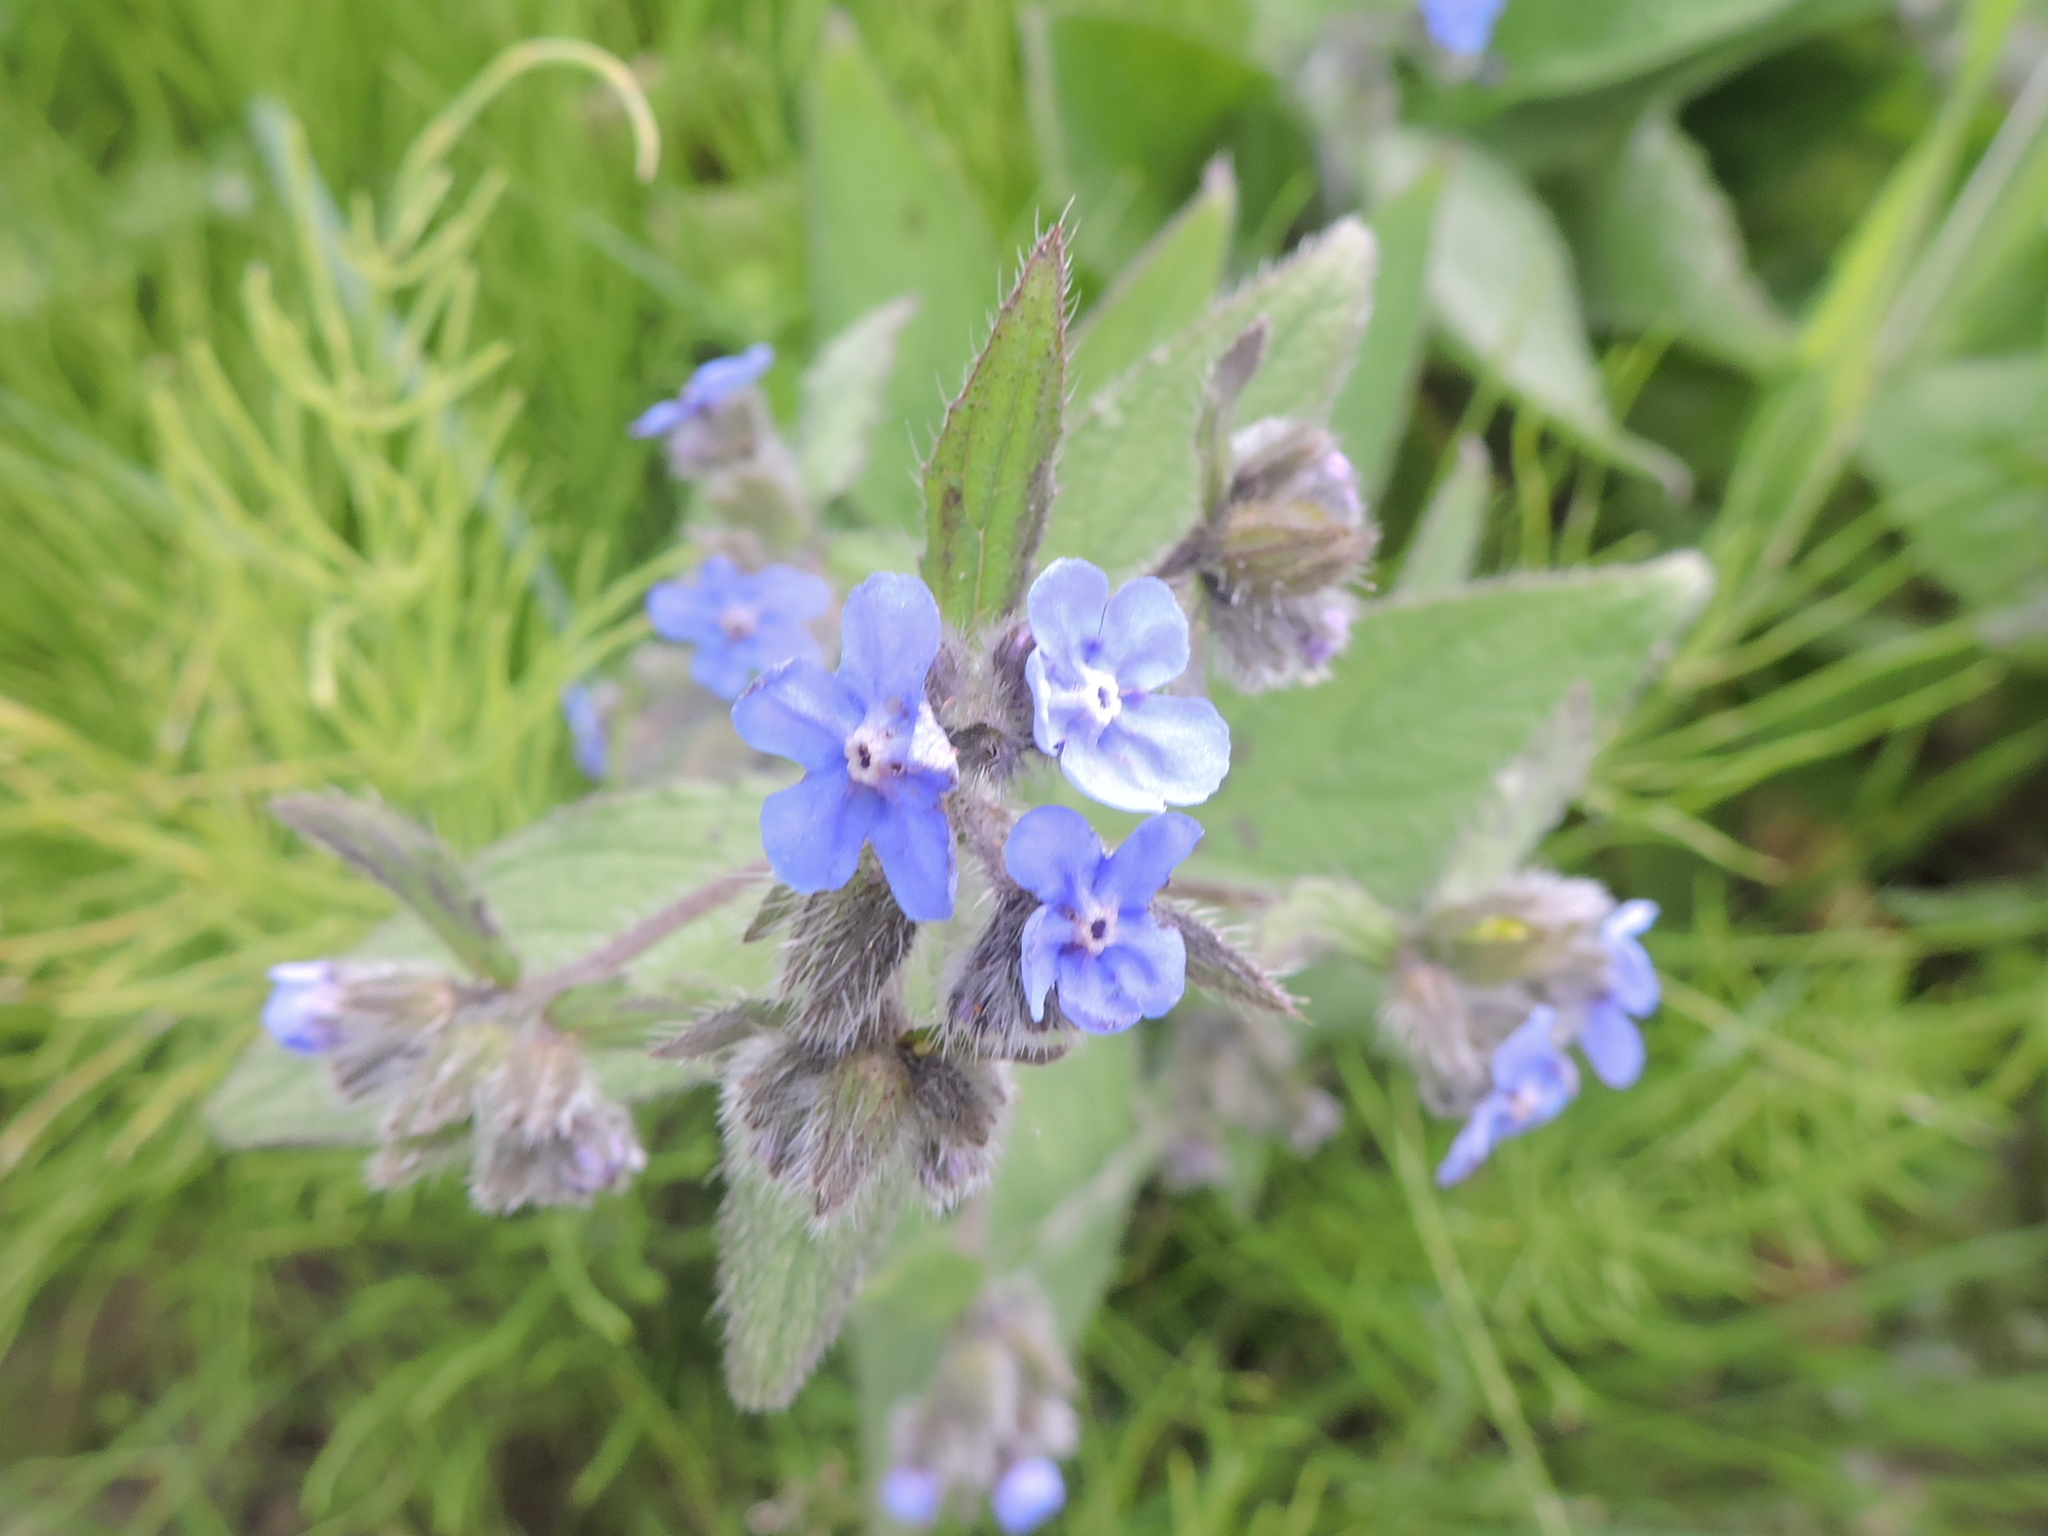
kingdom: Plantae
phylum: Tracheophyta
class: Magnoliopsida
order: Boraginales
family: Boraginaceae
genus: Pentaglottis
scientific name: Pentaglottis sempervirens
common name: Green alkanet
